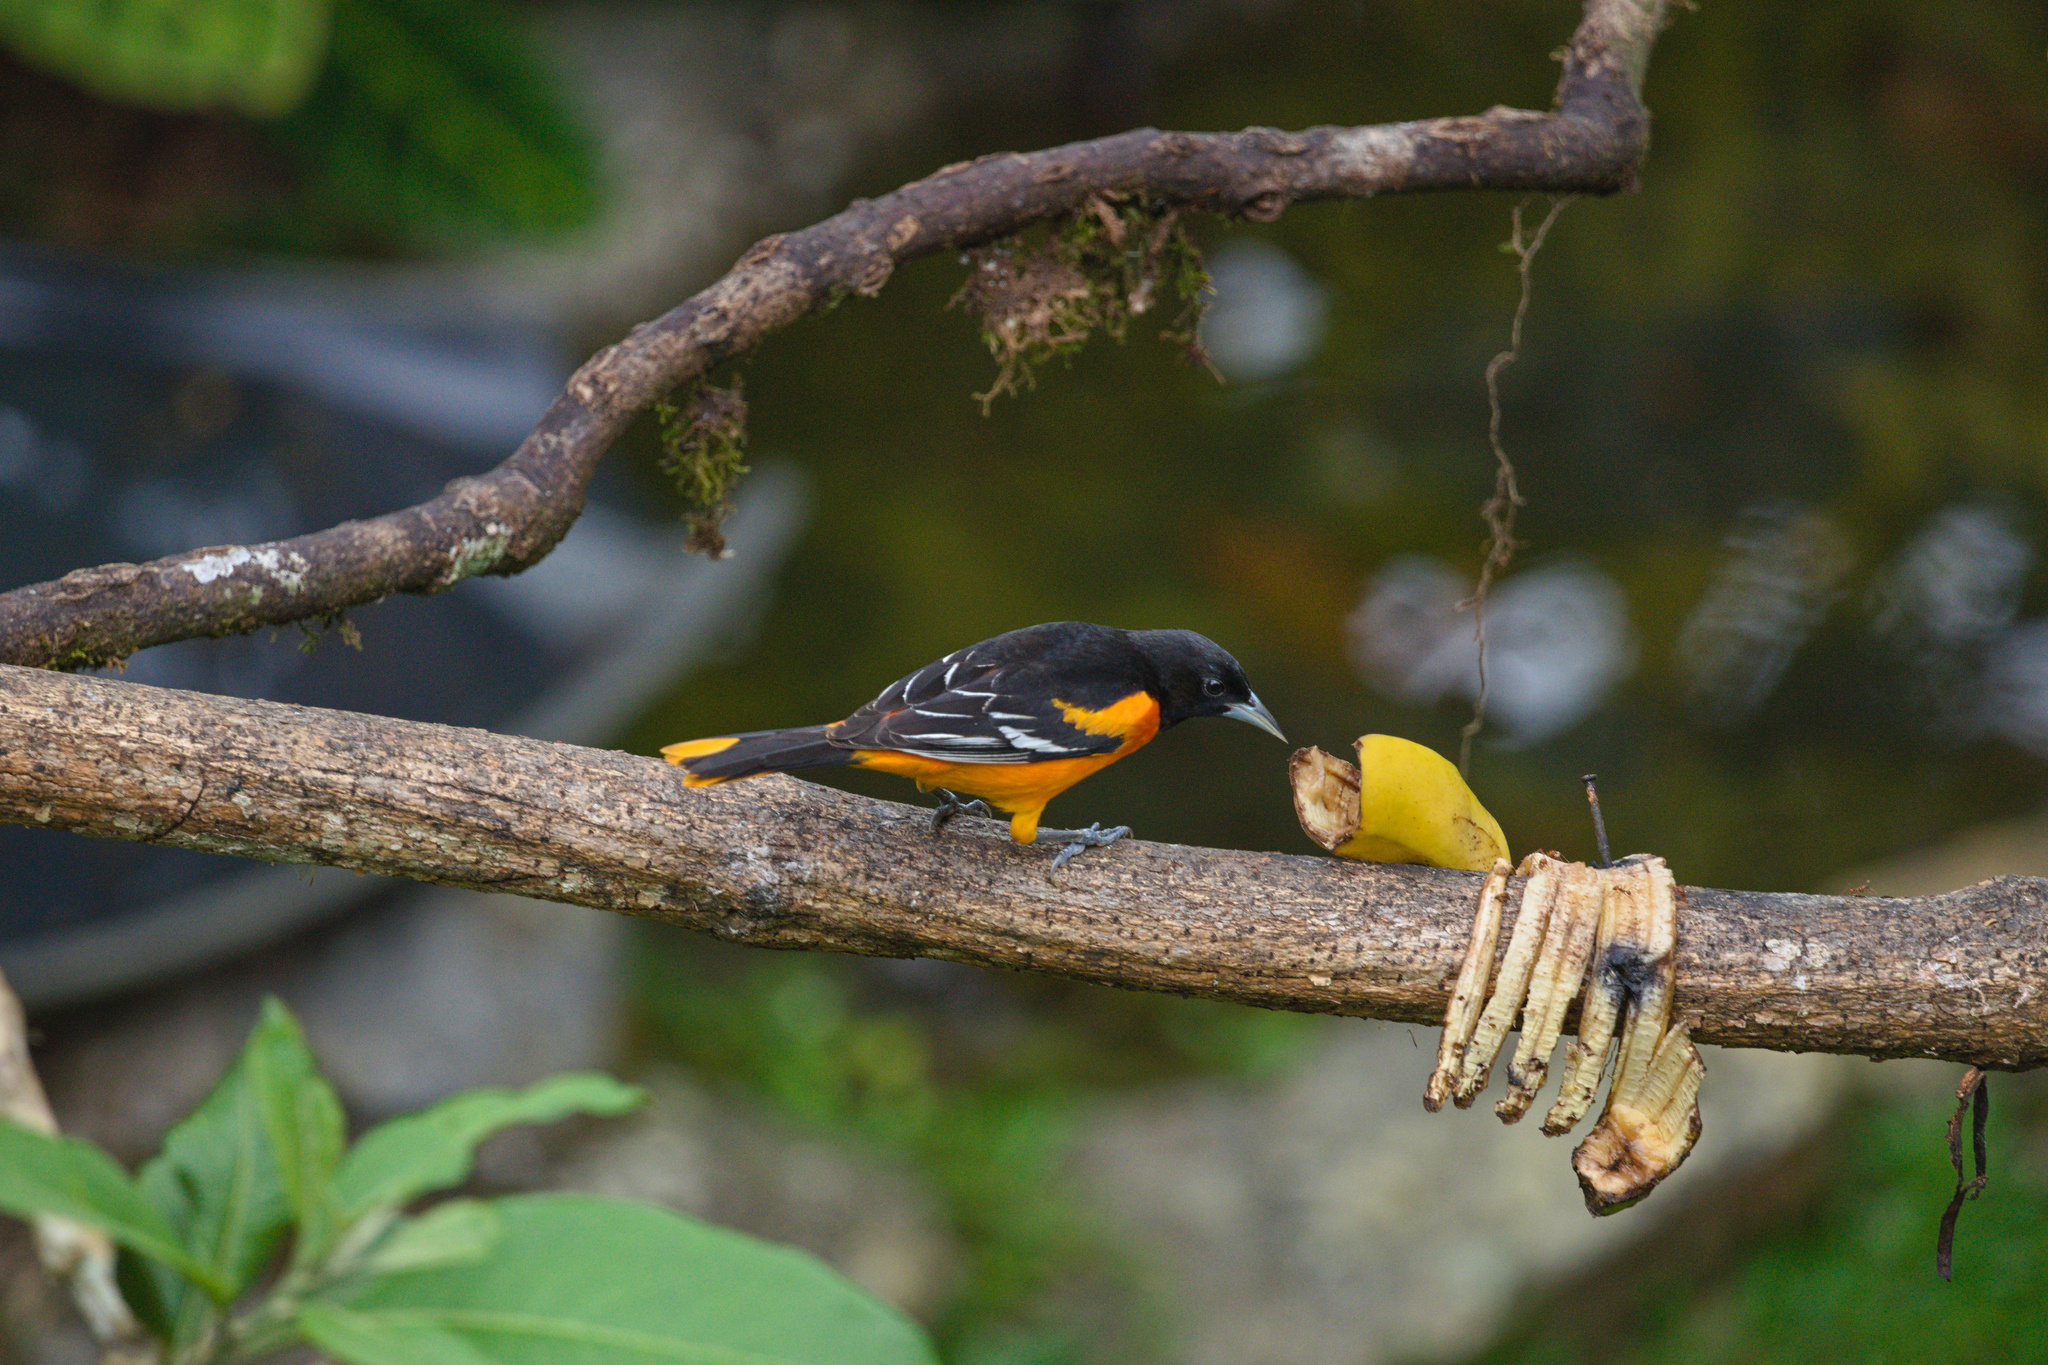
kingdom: Animalia
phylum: Chordata
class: Aves
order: Passeriformes
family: Icteridae
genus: Icterus
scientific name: Icterus galbula
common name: Baltimore oriole
